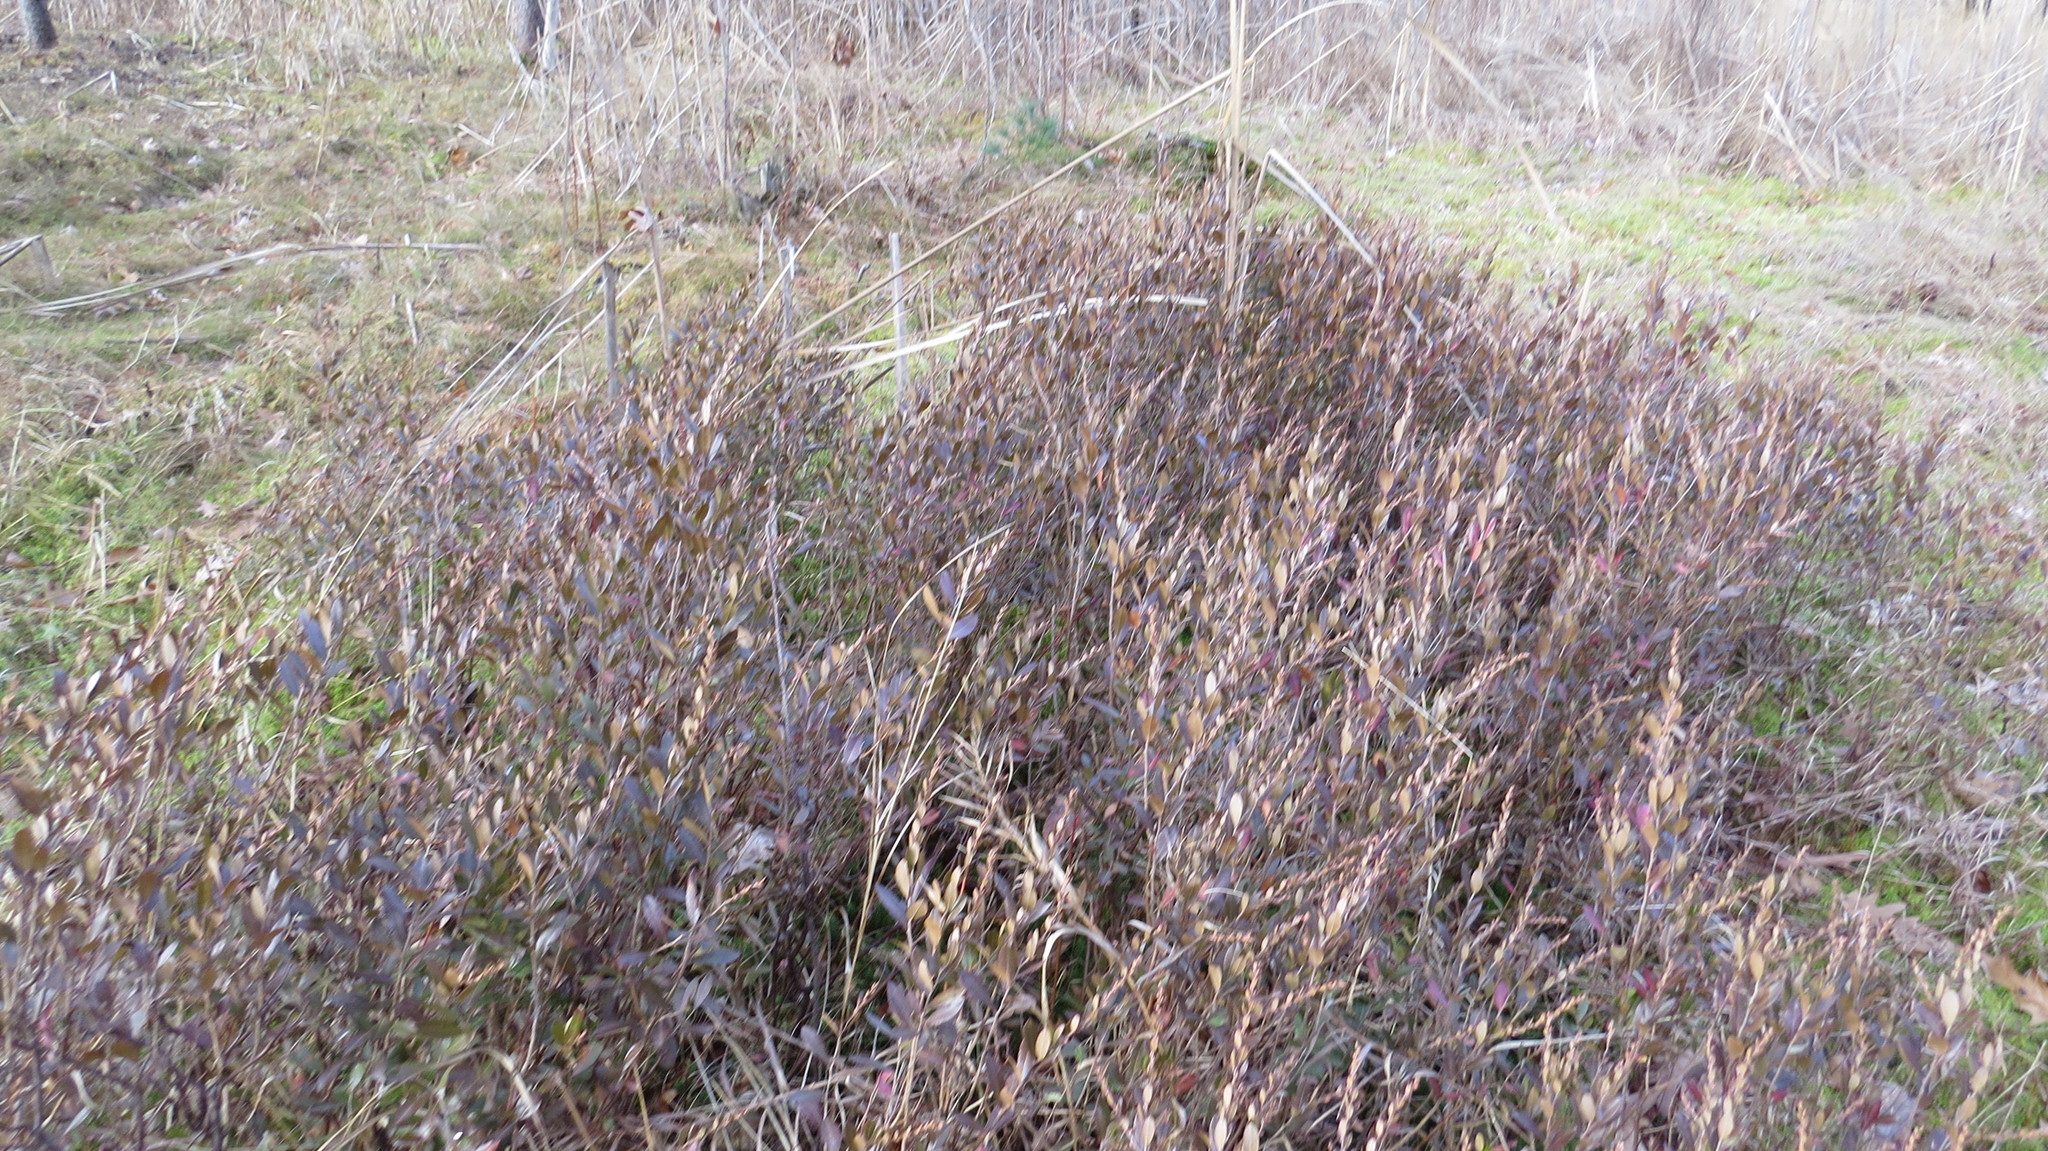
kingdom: Plantae
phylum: Tracheophyta
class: Magnoliopsida
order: Ericales
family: Ericaceae
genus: Chamaedaphne
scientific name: Chamaedaphne calyculata
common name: Leatherleaf
